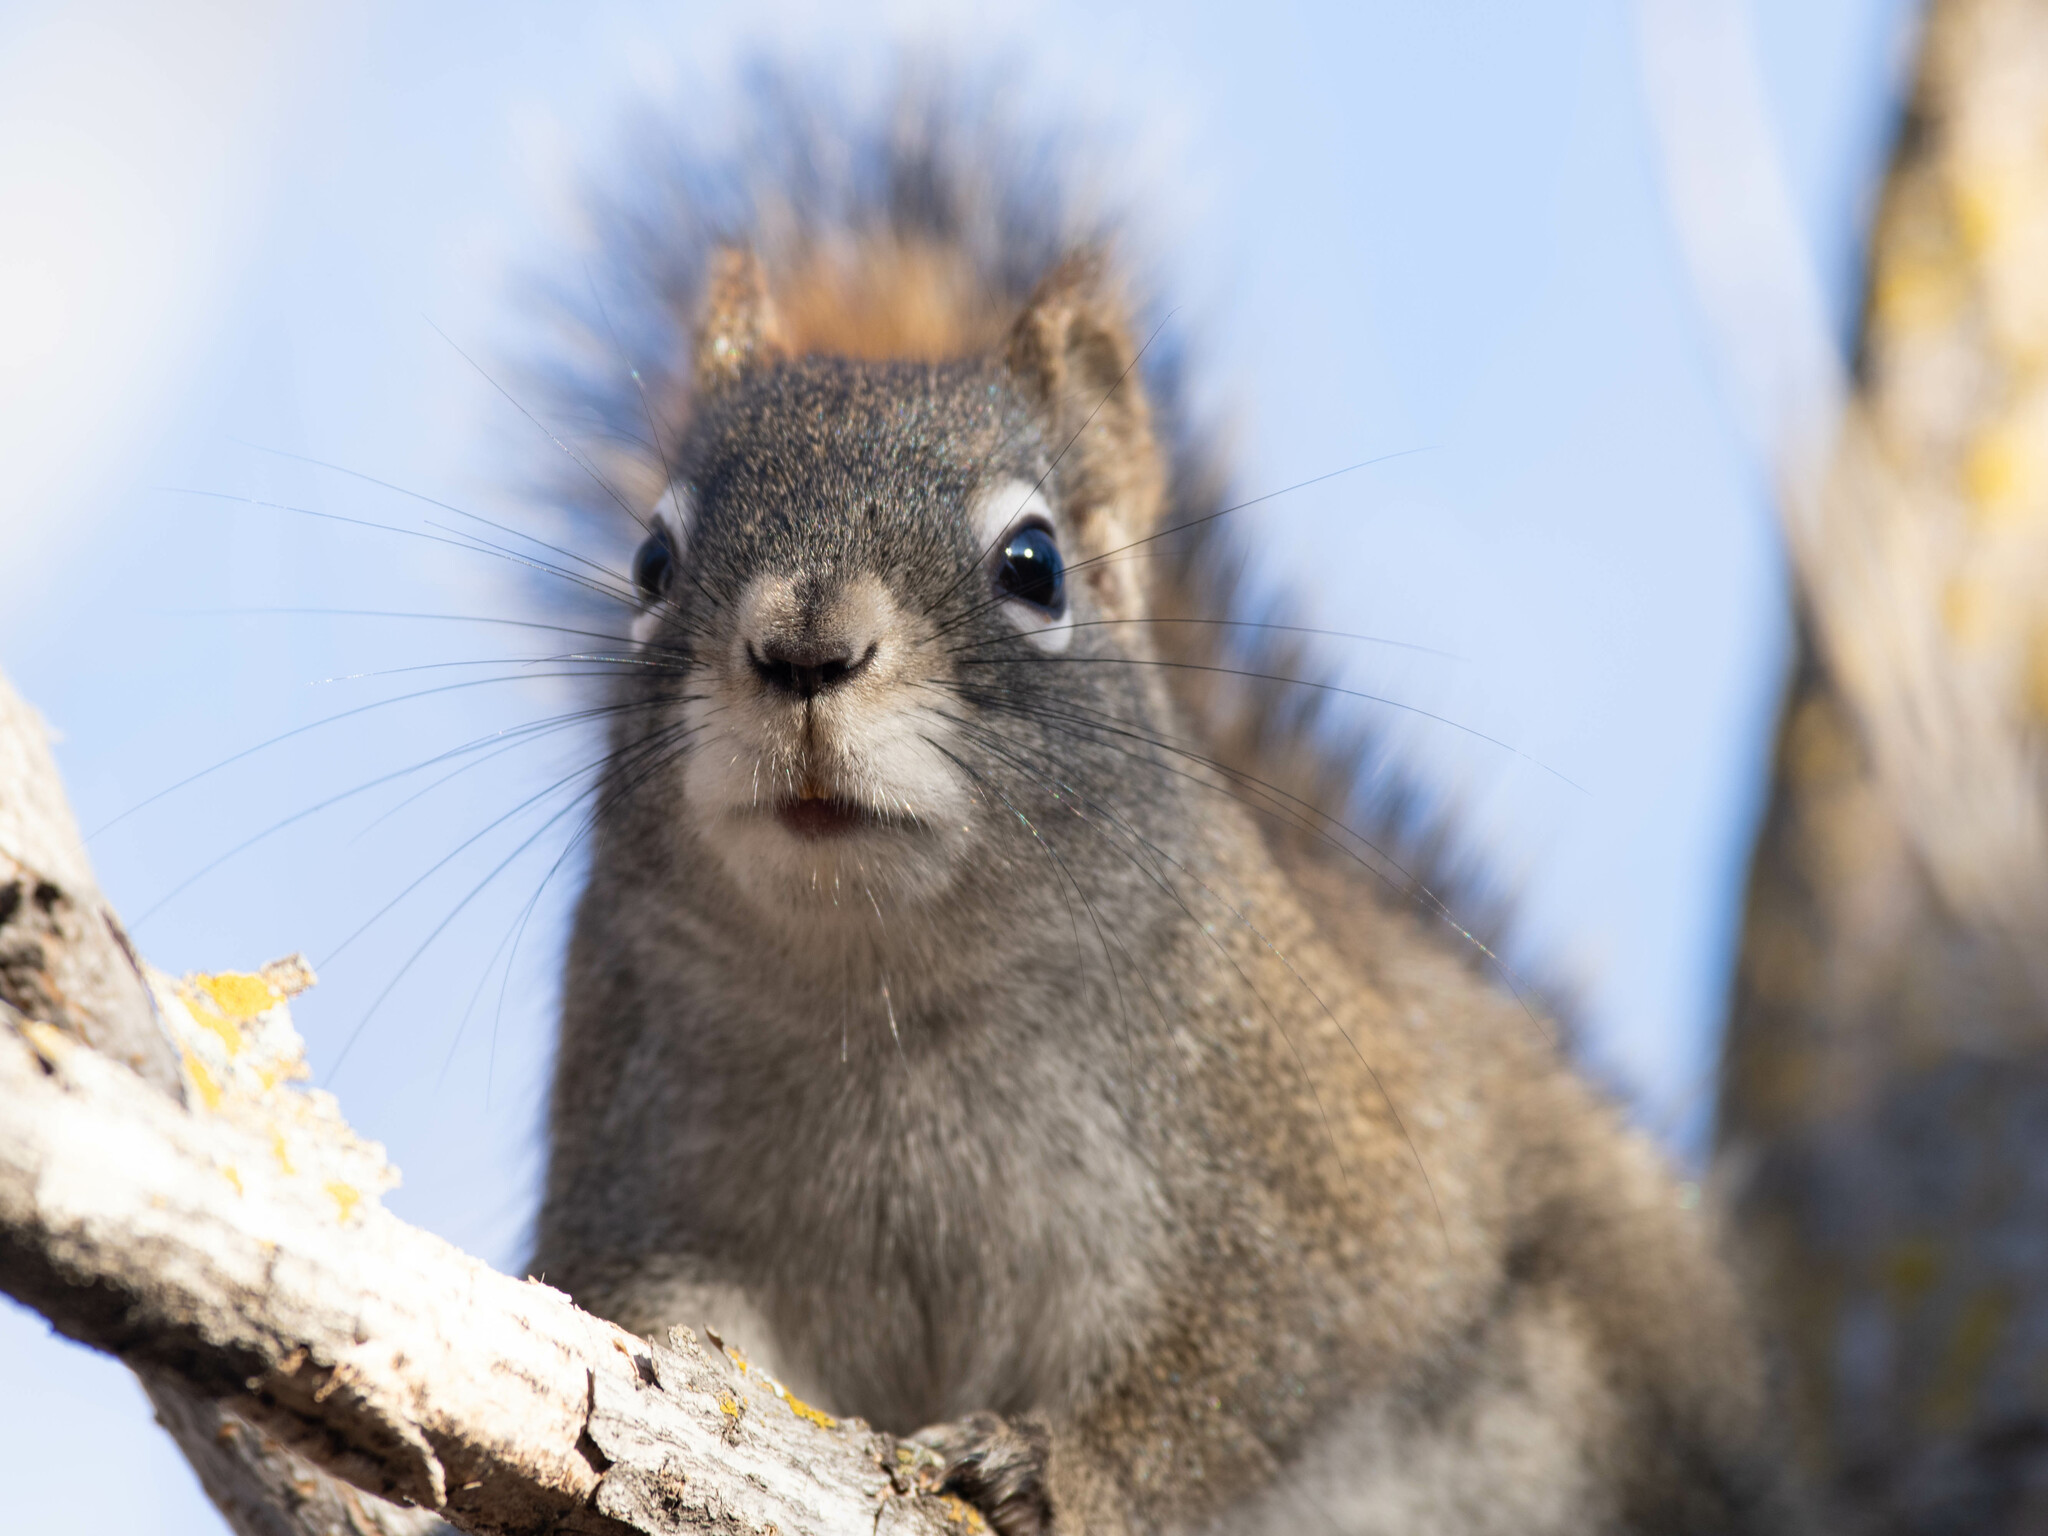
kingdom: Animalia
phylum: Chordata
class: Mammalia
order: Rodentia
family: Sciuridae
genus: Tamiasciurus
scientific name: Tamiasciurus hudsonicus
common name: Red squirrel
